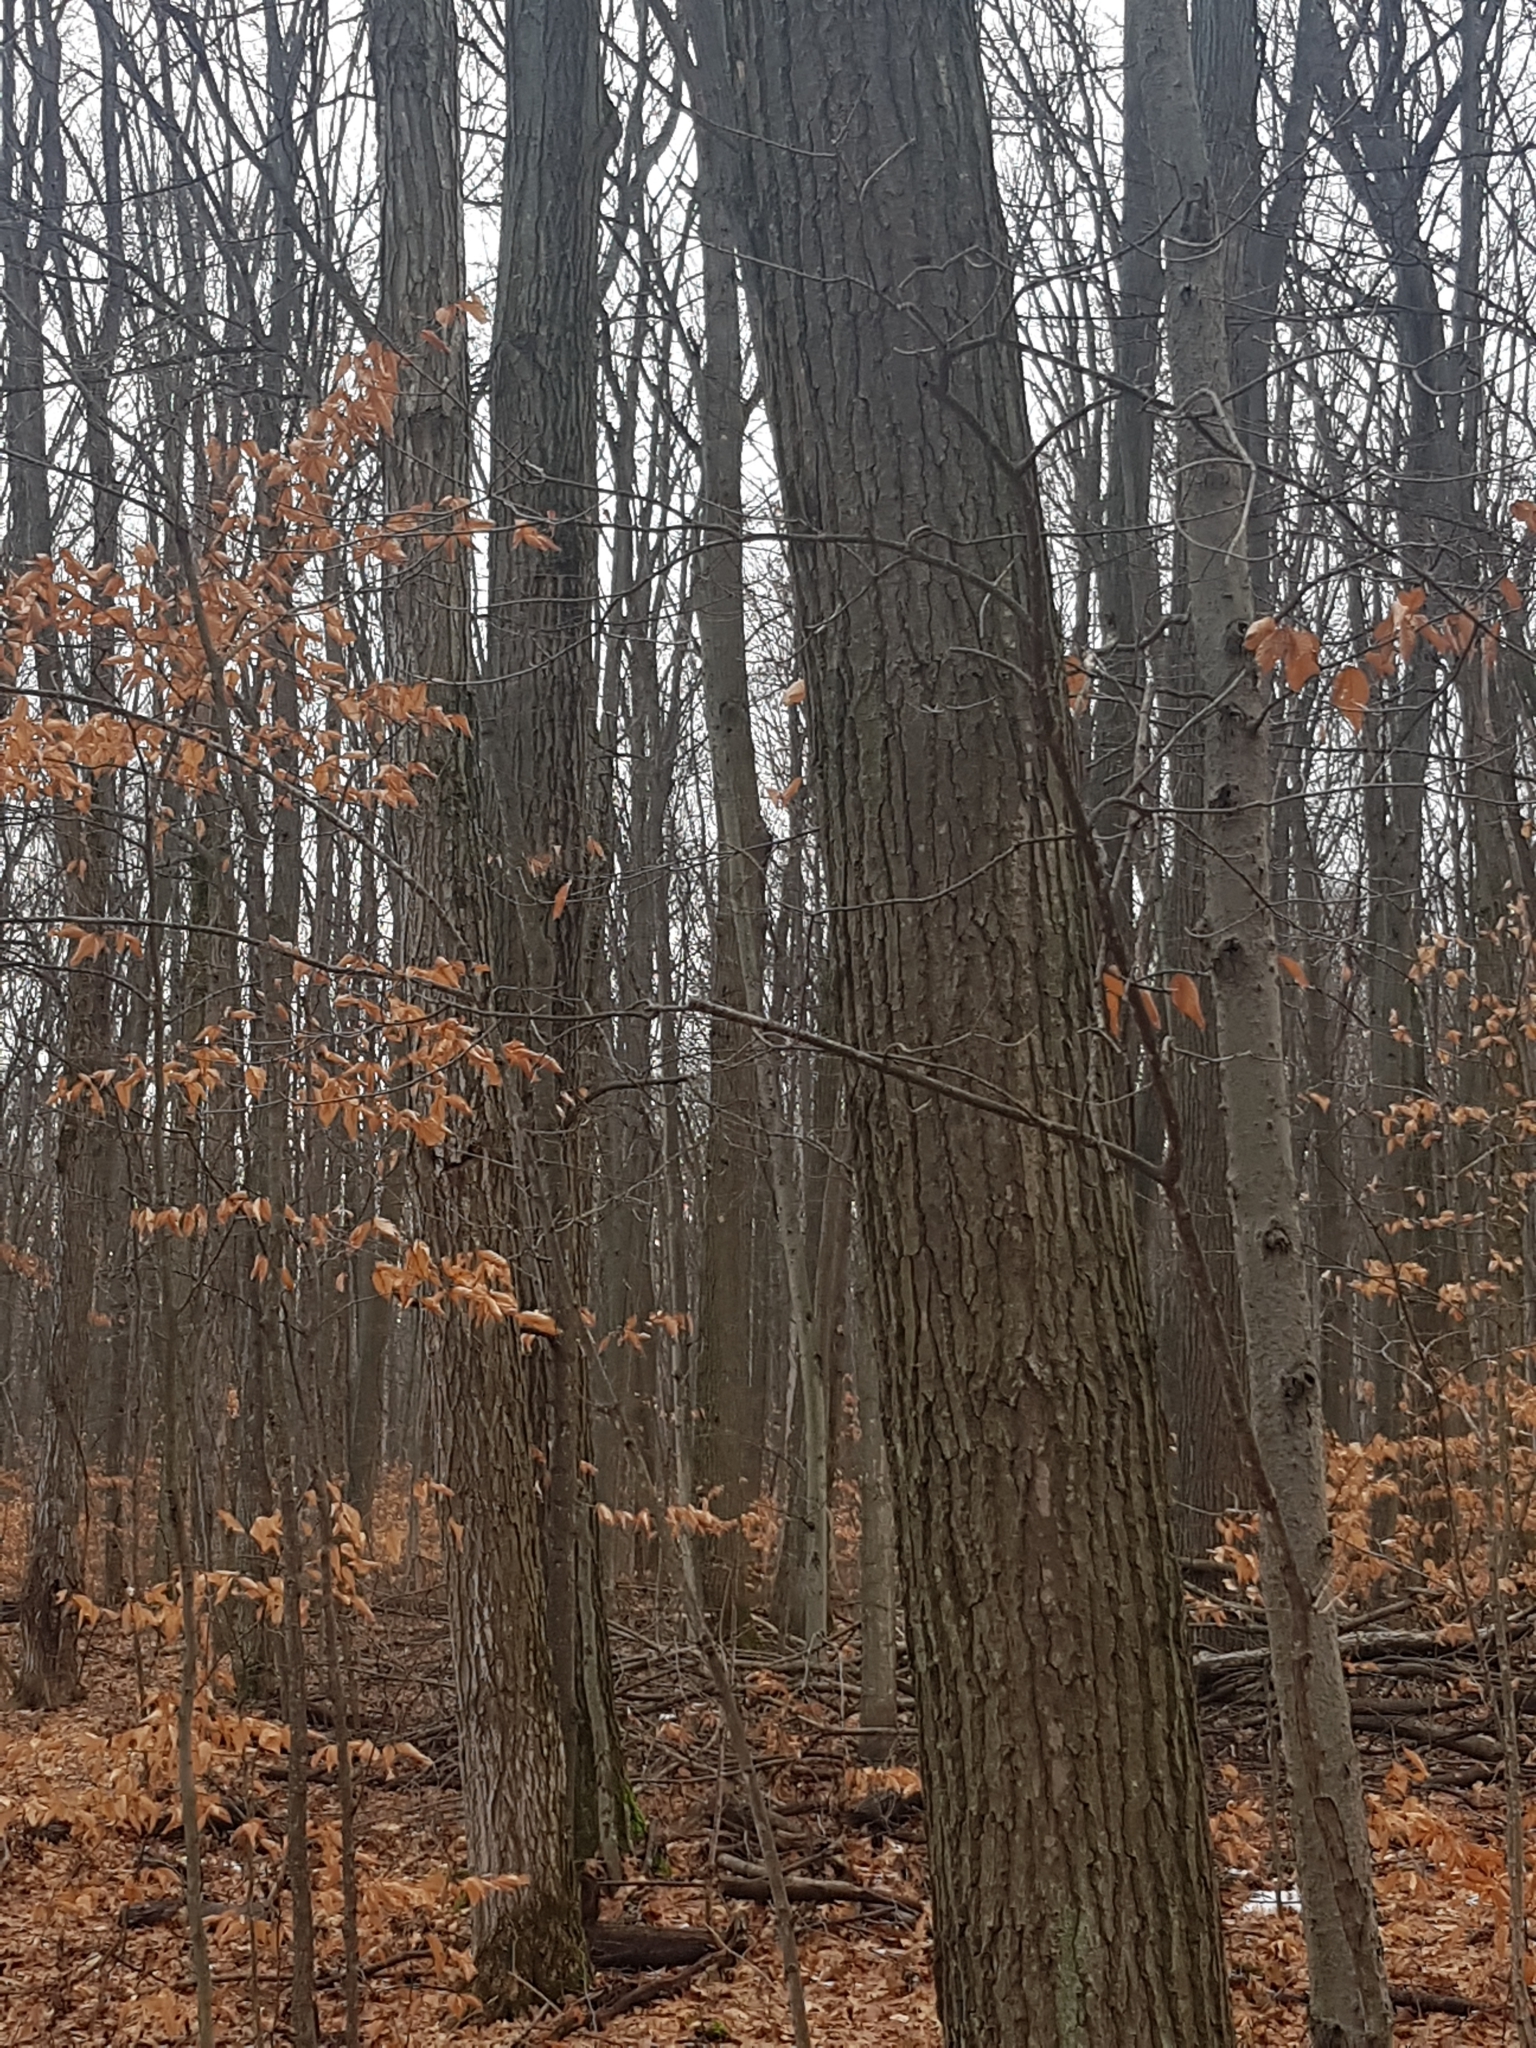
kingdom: Plantae
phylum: Tracheophyta
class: Magnoliopsida
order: Fagales
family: Fagaceae
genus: Quercus
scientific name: Quercus rubra
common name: Red oak
